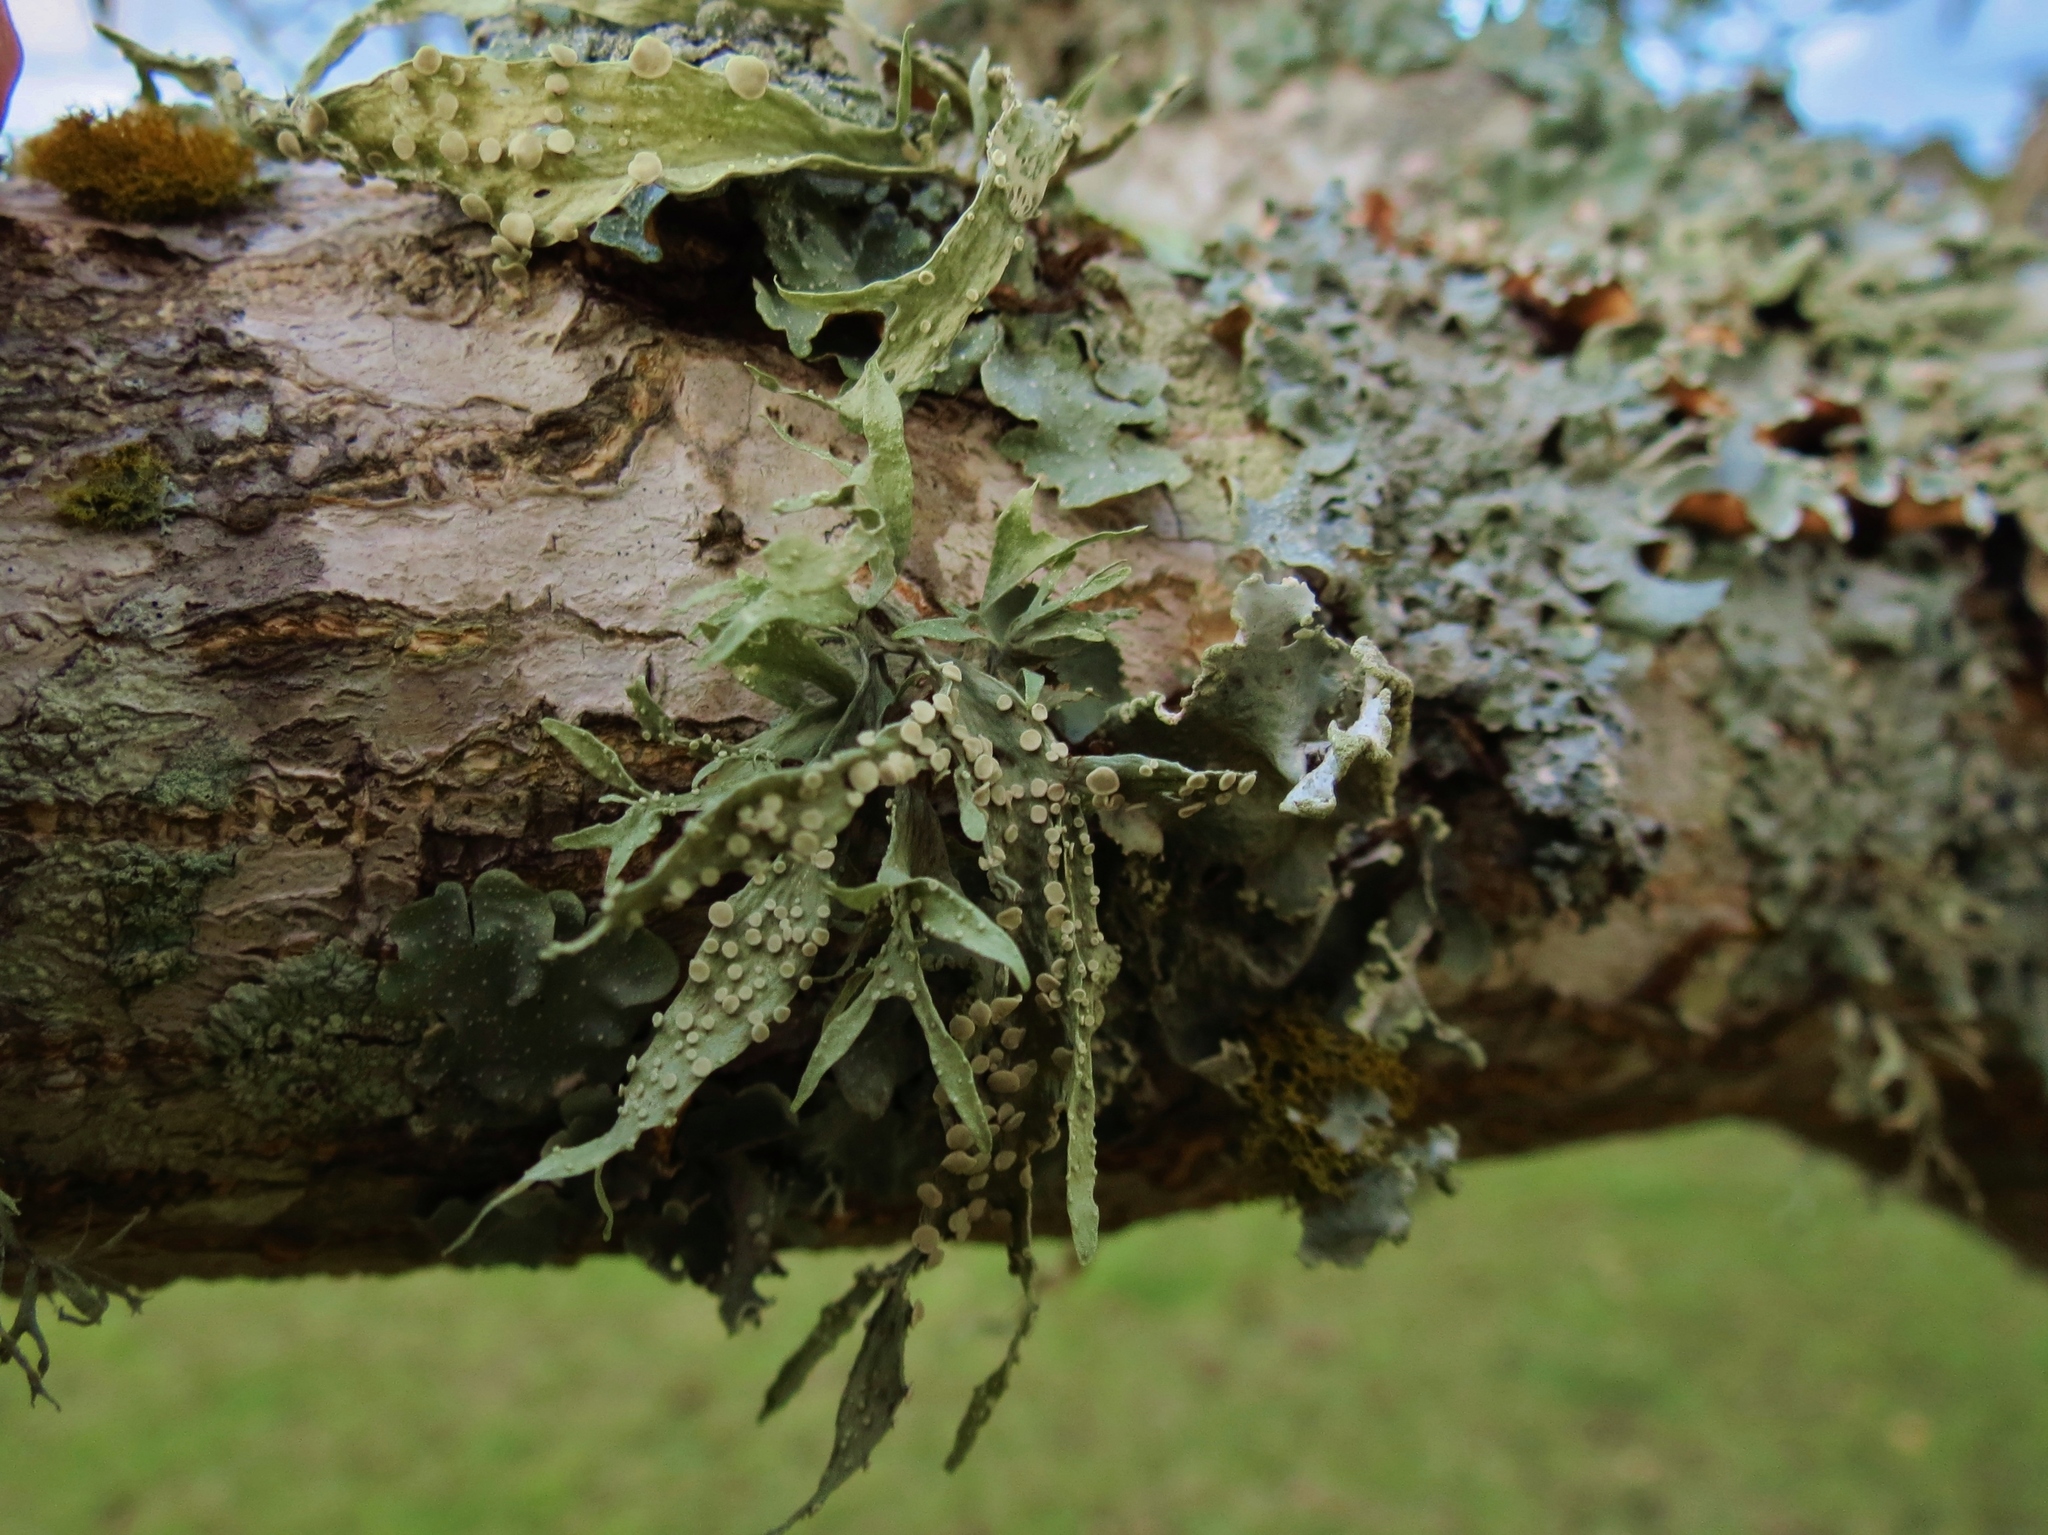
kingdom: Fungi
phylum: Ascomycota
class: Lecanoromycetes
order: Lecanorales
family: Ramalinaceae
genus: Ramalina
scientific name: Ramalina celastri
